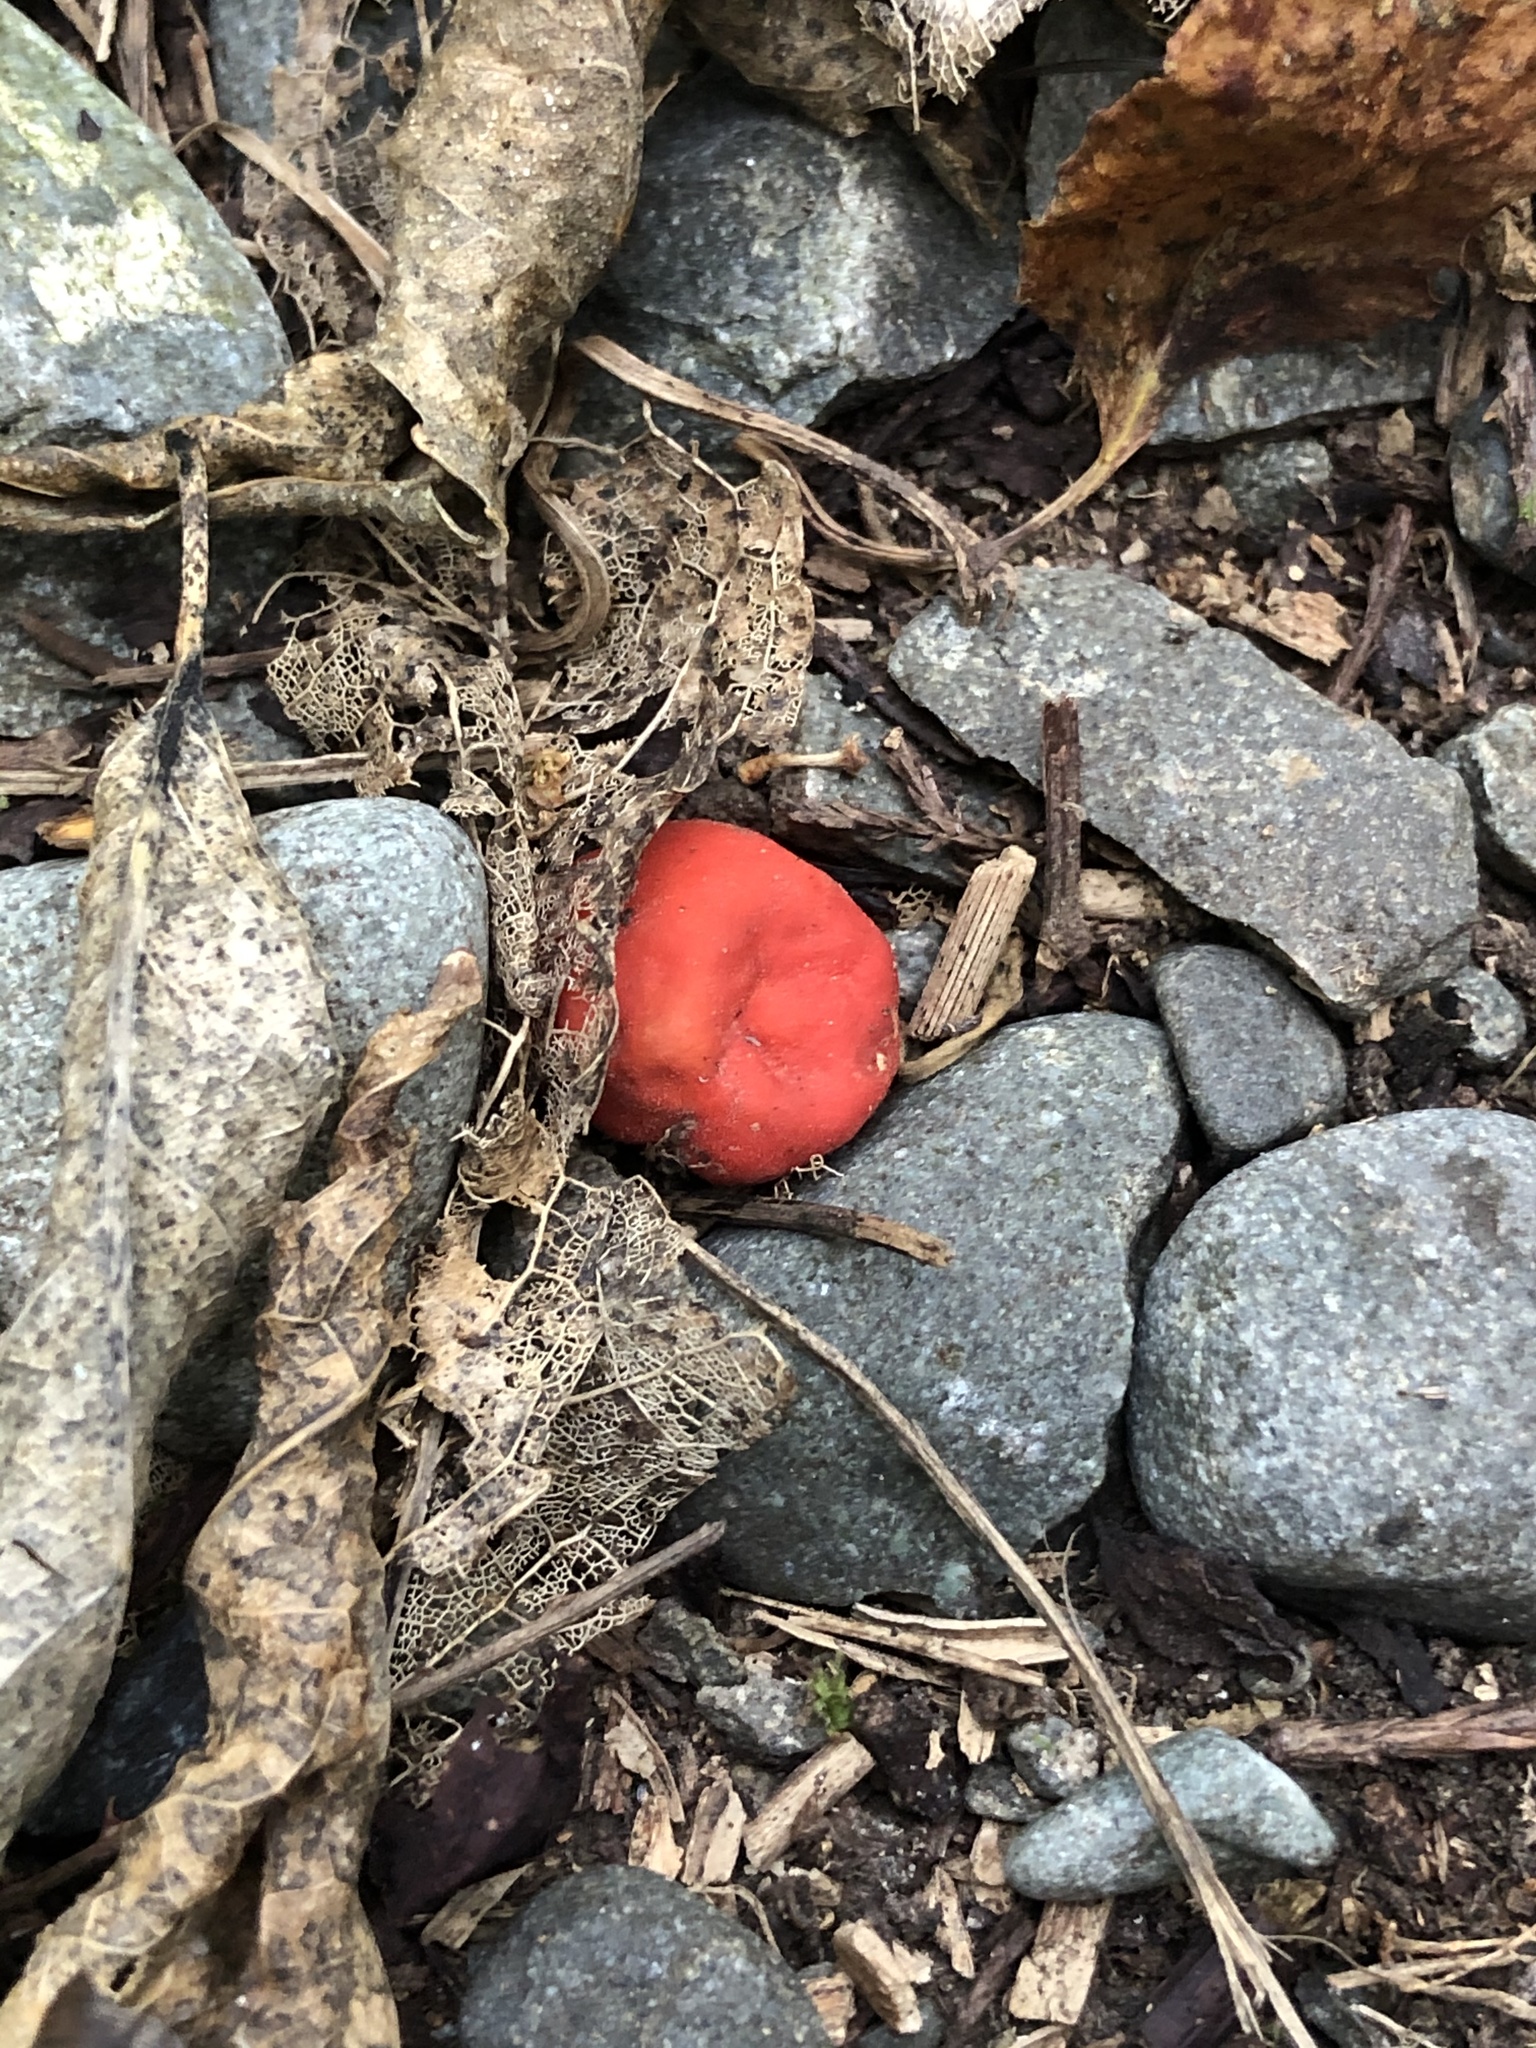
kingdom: Fungi
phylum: Ascomycota
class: Pezizomycetes
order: Pezizales
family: Pyronemataceae
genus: Paurocotylis
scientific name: Paurocotylis pila
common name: Scarlet berry truffle
